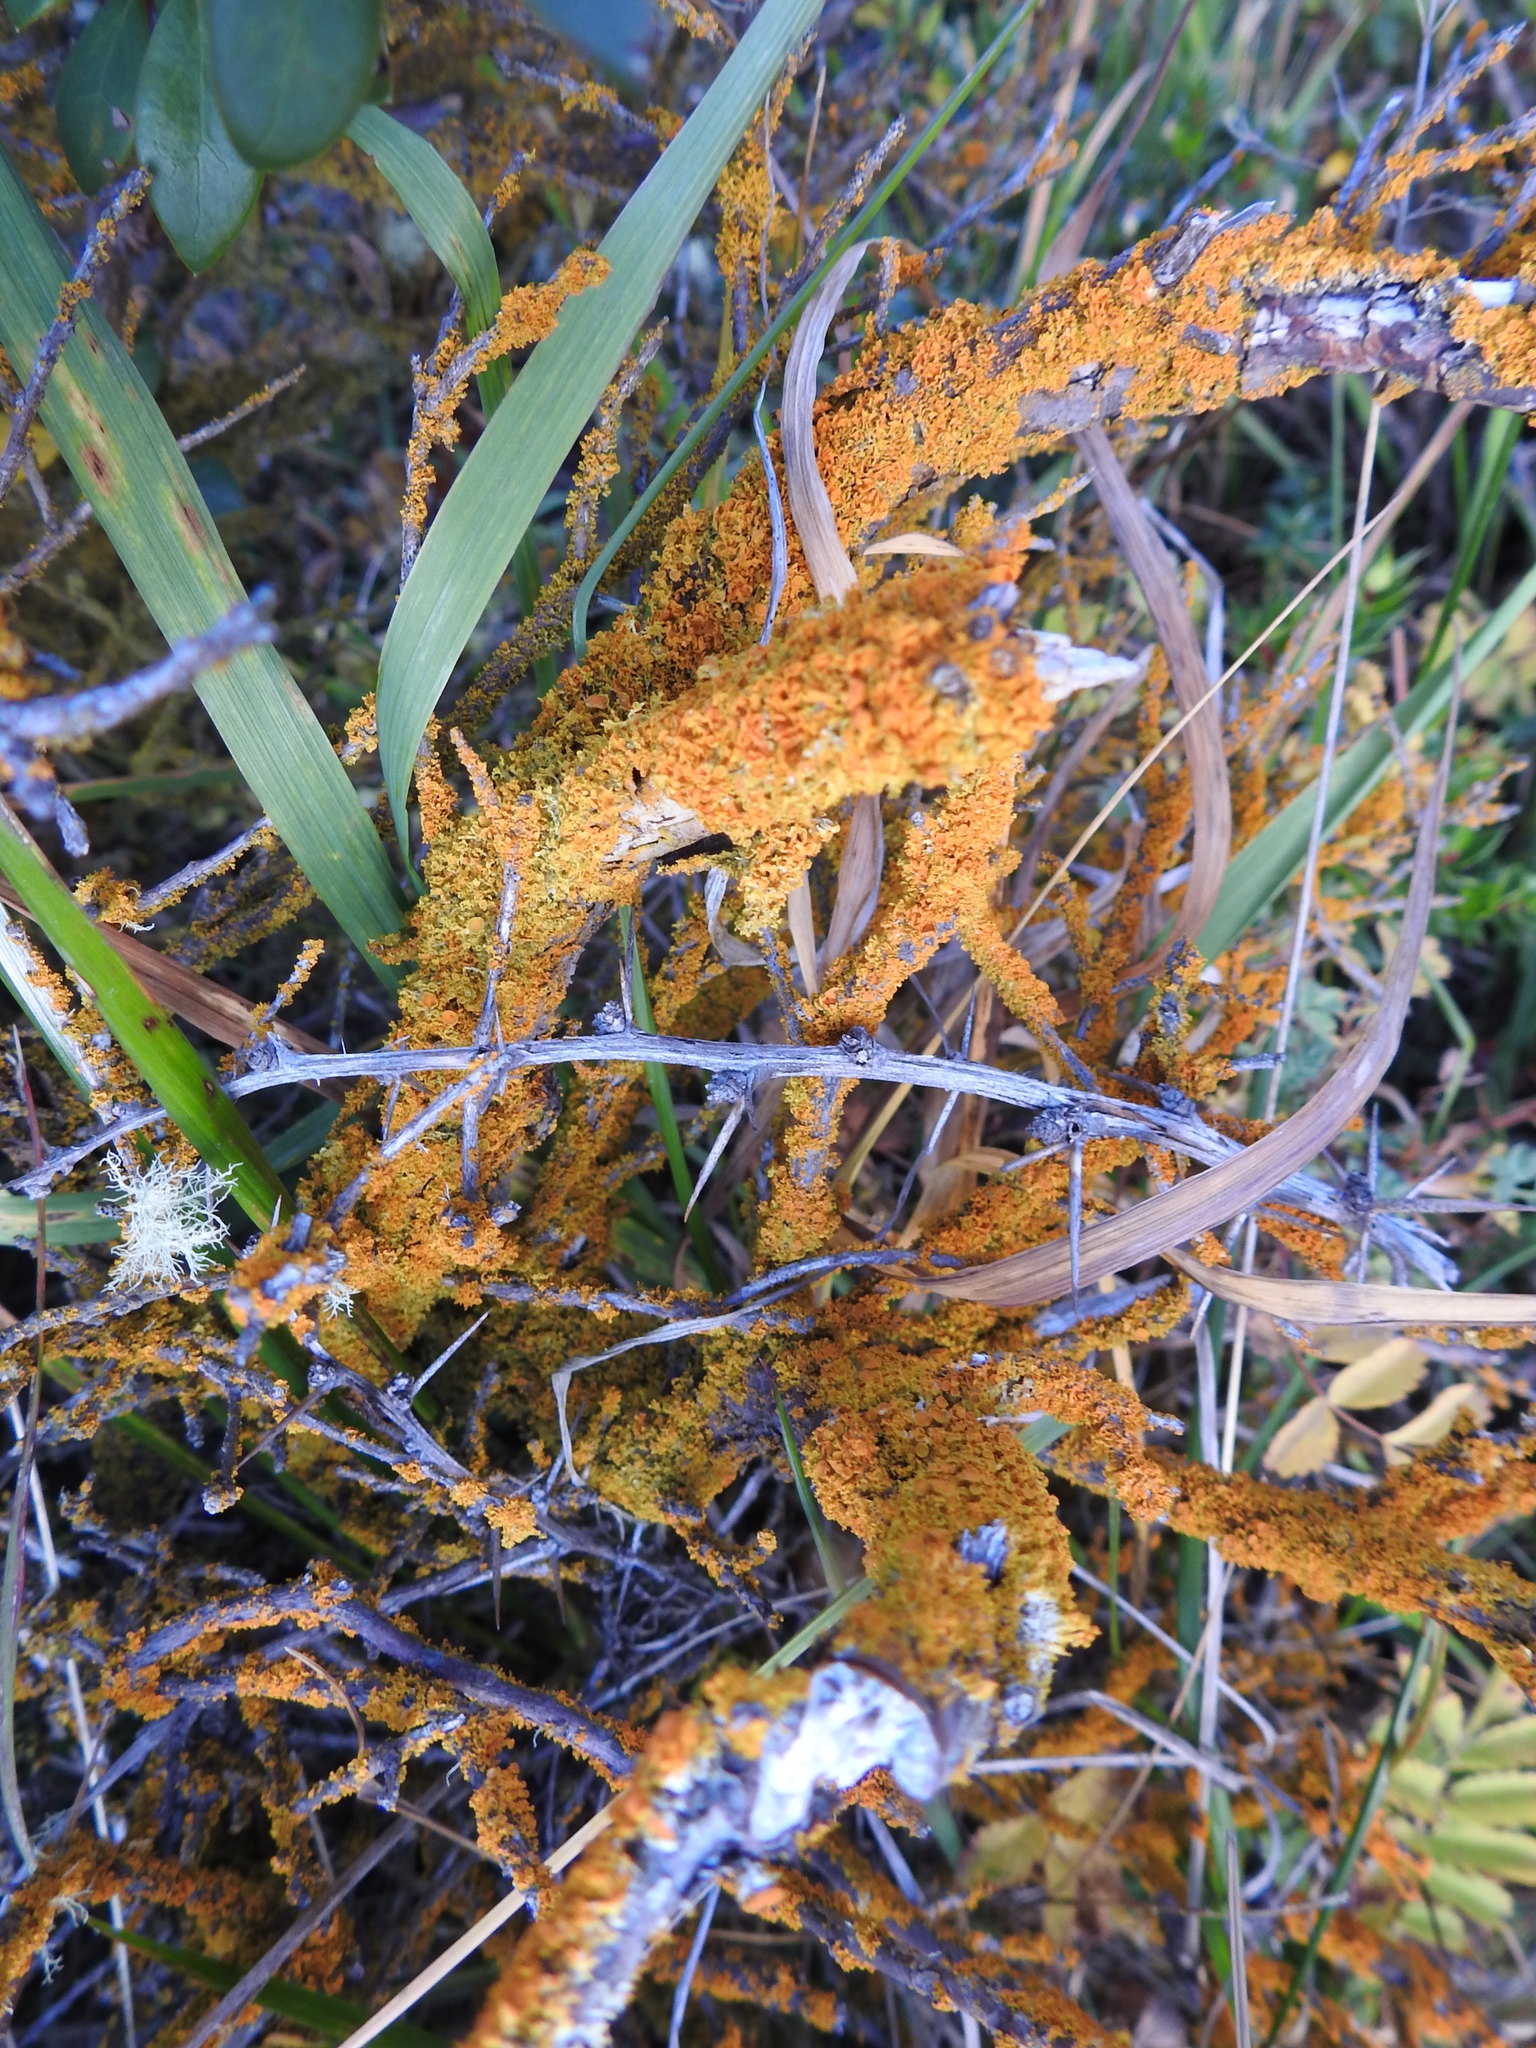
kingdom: Fungi
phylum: Ascomycota
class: Lecanoromycetes
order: Teloschistales
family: Teloschistaceae
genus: Polycauliona
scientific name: Polycauliona candelaria
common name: Shrubby sunburst lichen
